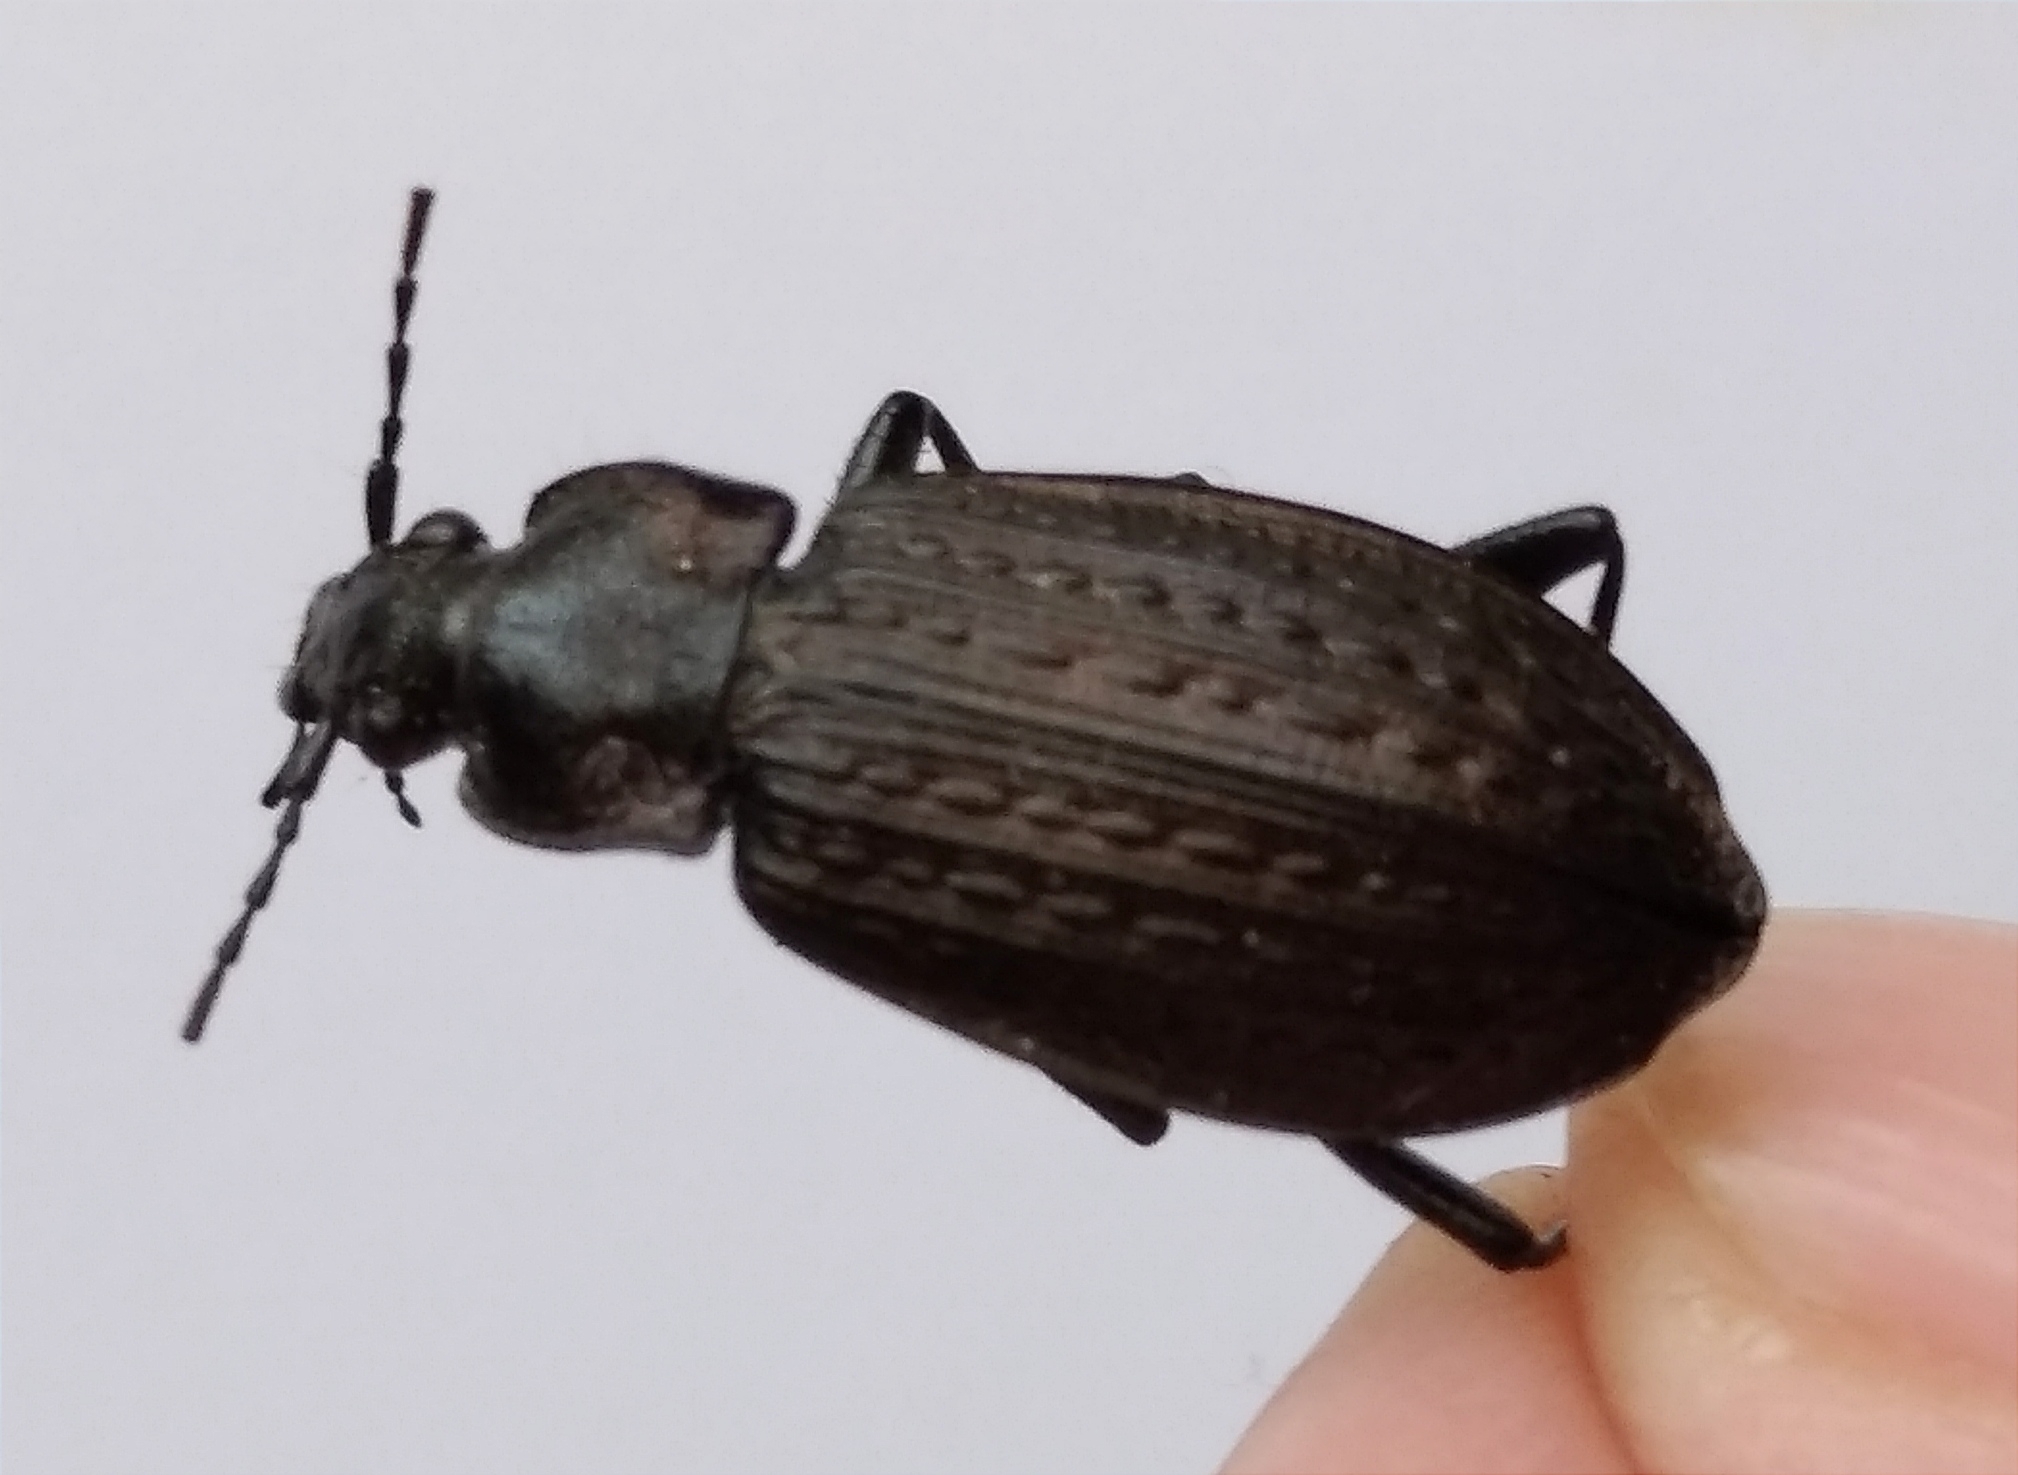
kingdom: Animalia
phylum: Arthropoda
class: Insecta
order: Coleoptera
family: Carabidae
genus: Carabus
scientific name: Carabus granulatus
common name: Granulate ground beetle
